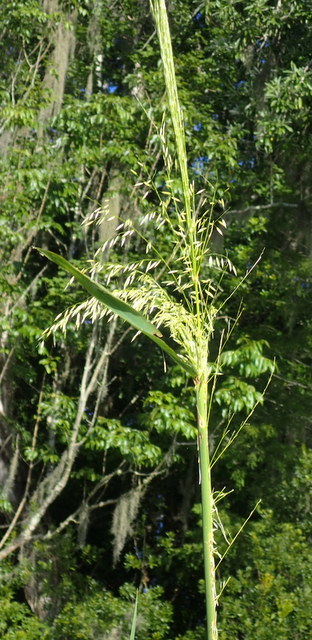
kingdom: Plantae
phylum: Tracheophyta
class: Liliopsida
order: Poales
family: Poaceae
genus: Zizania
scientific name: Zizania aquatica
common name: Annual wildrice
